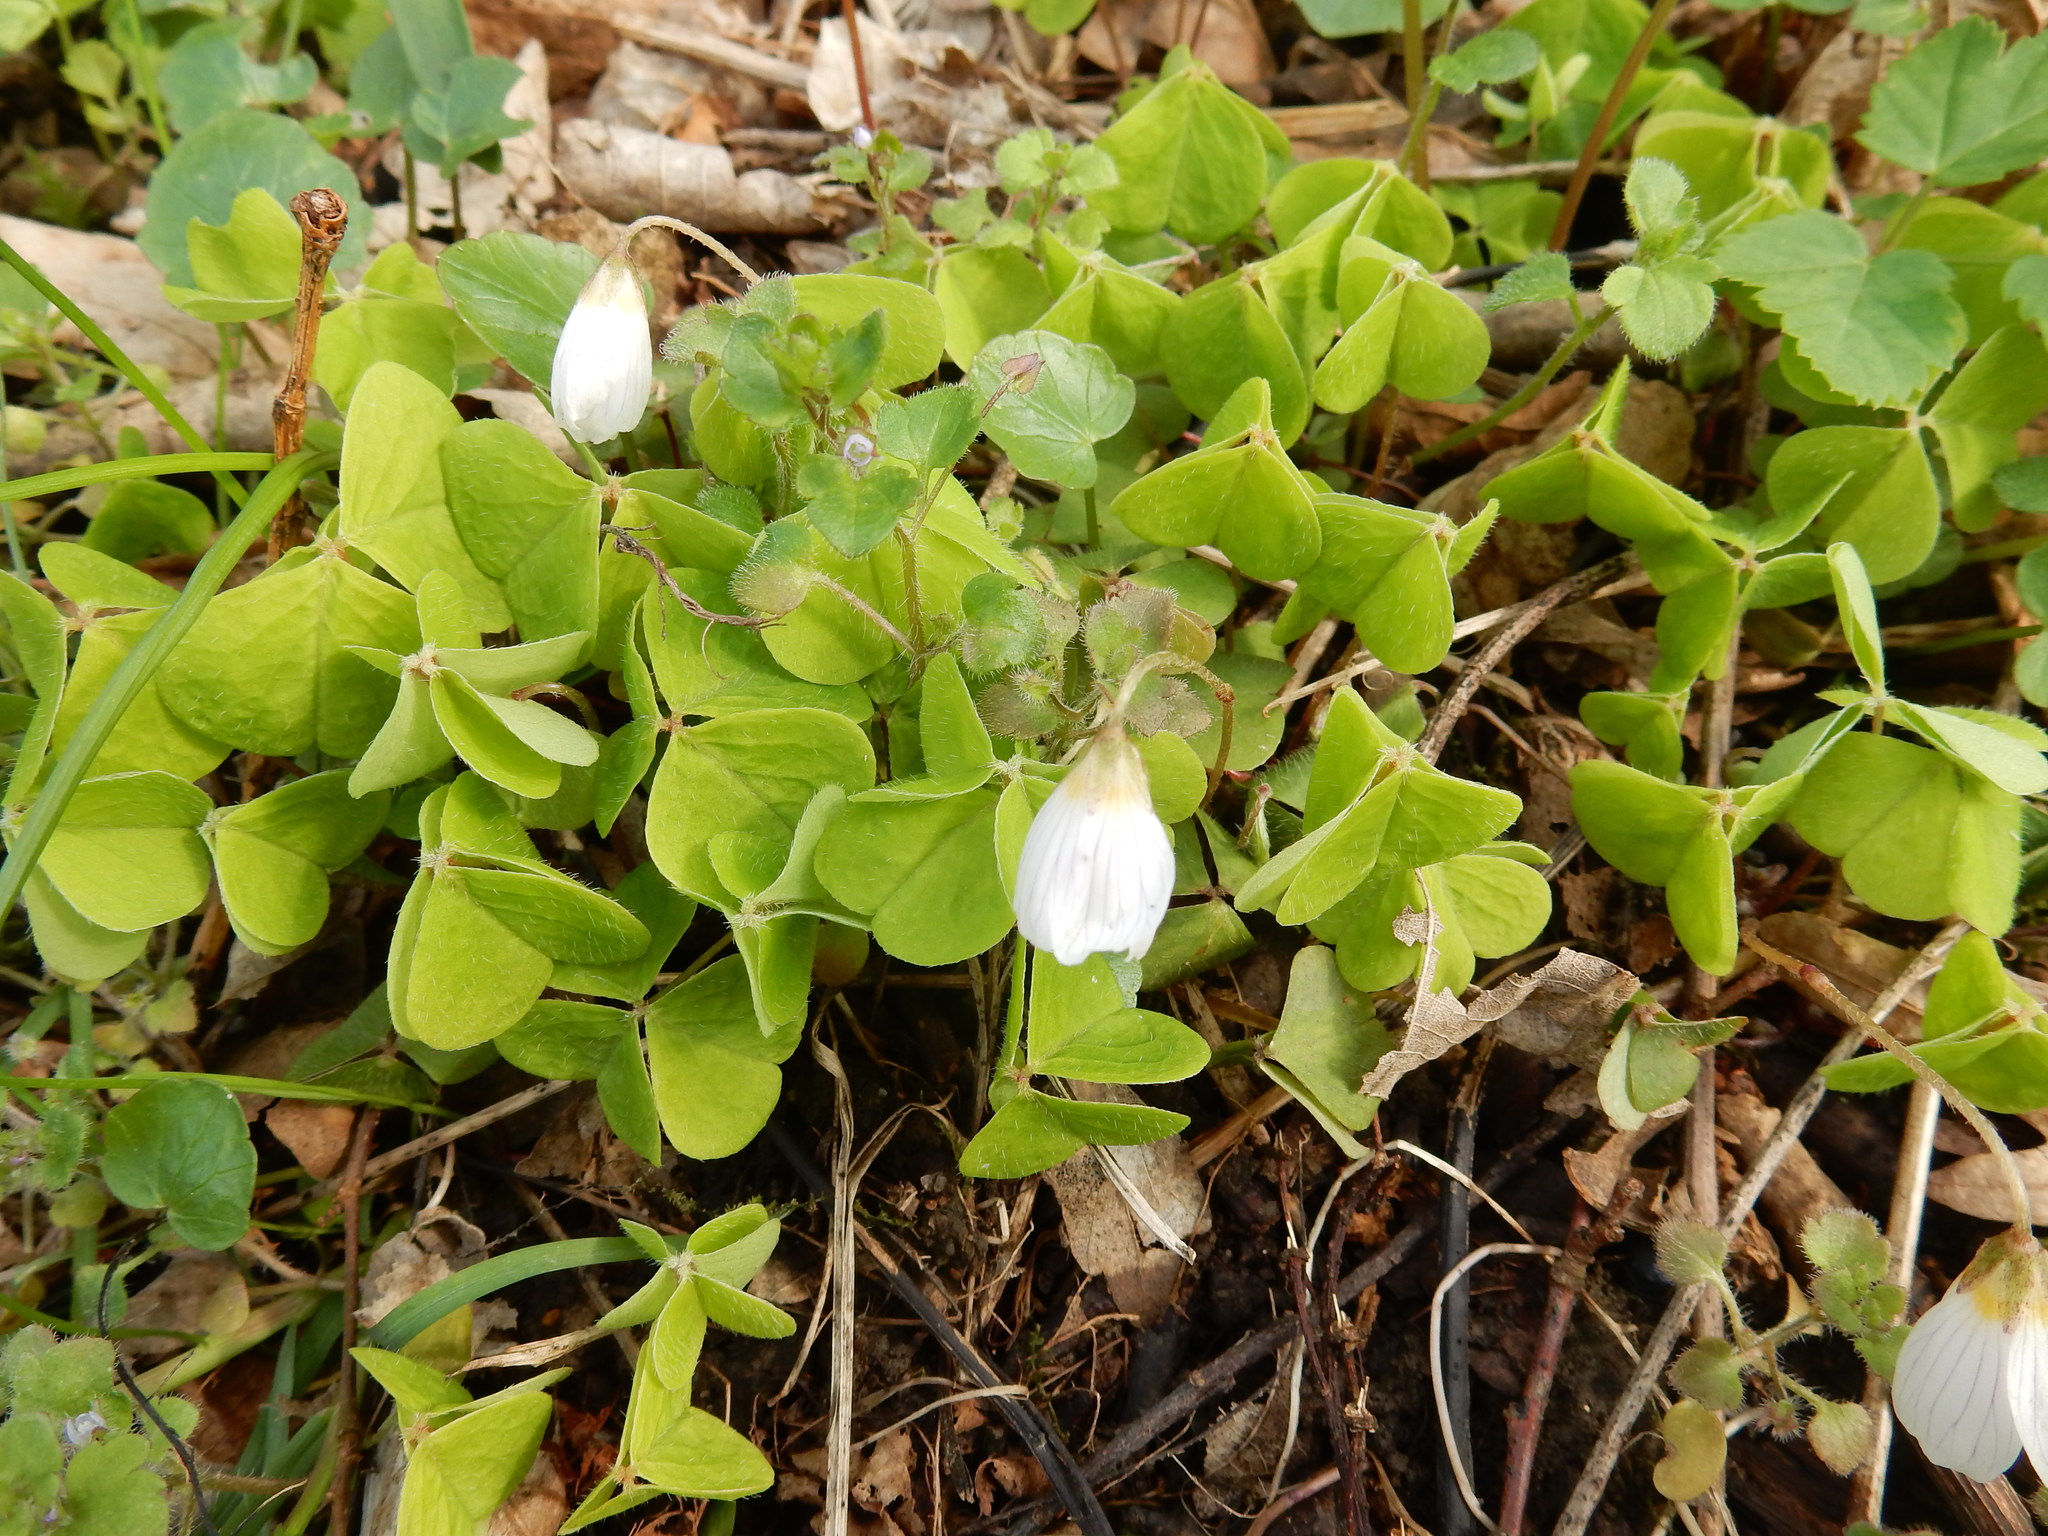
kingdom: Plantae
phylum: Tracheophyta
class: Magnoliopsida
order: Oxalidales
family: Oxalidaceae
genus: Oxalis
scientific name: Oxalis acetosella
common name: Wood-sorrel
